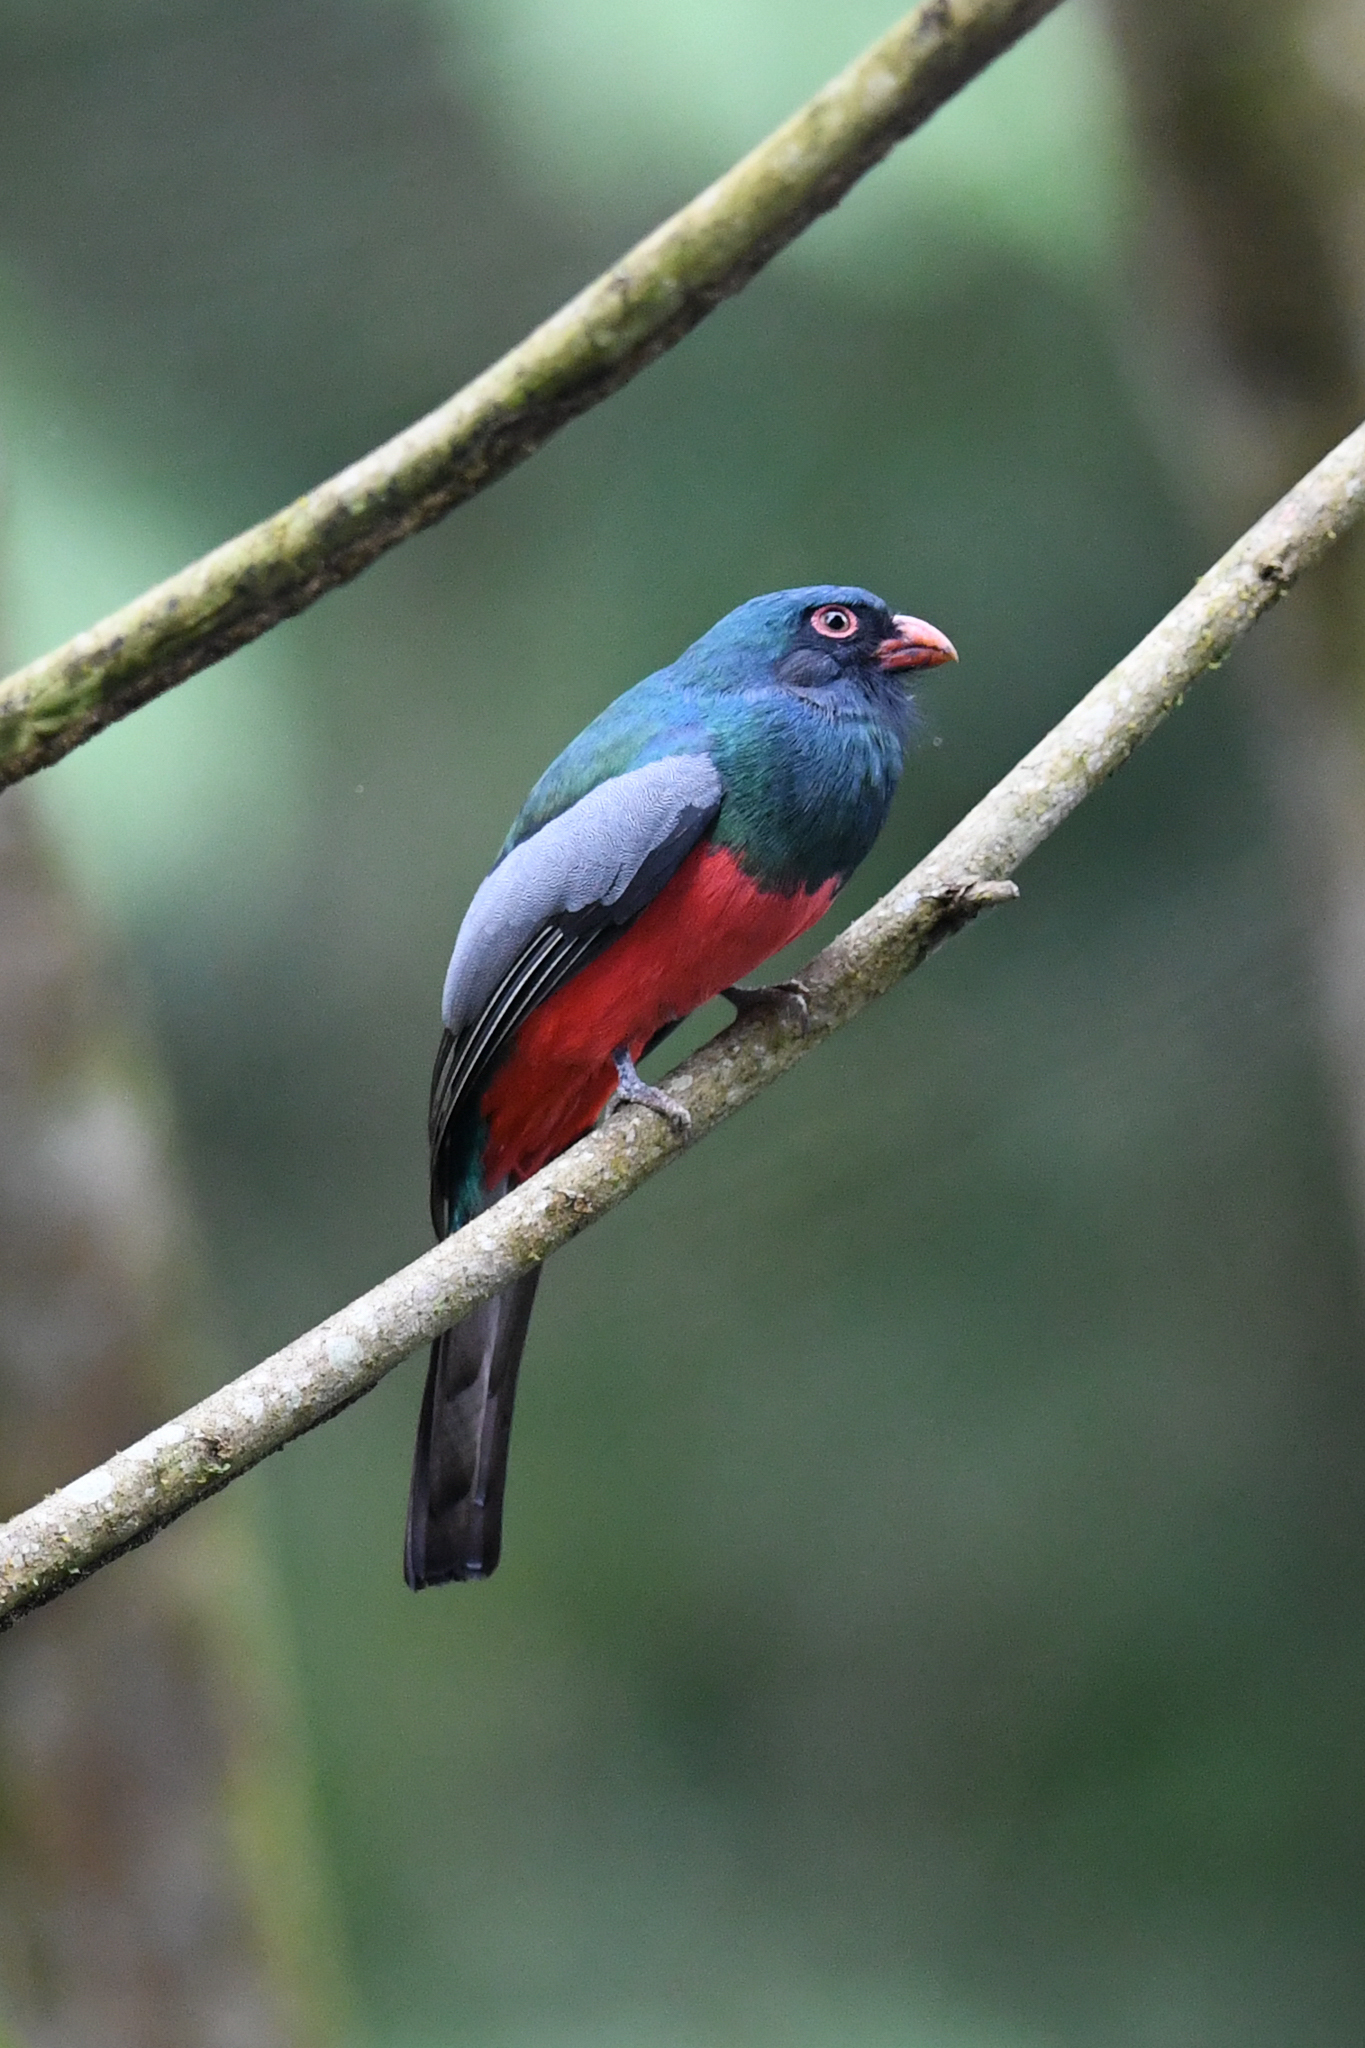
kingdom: Animalia
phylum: Chordata
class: Aves
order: Trogoniformes
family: Trogonidae
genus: Trogon
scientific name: Trogon massena
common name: Slaty-tailed trogon
